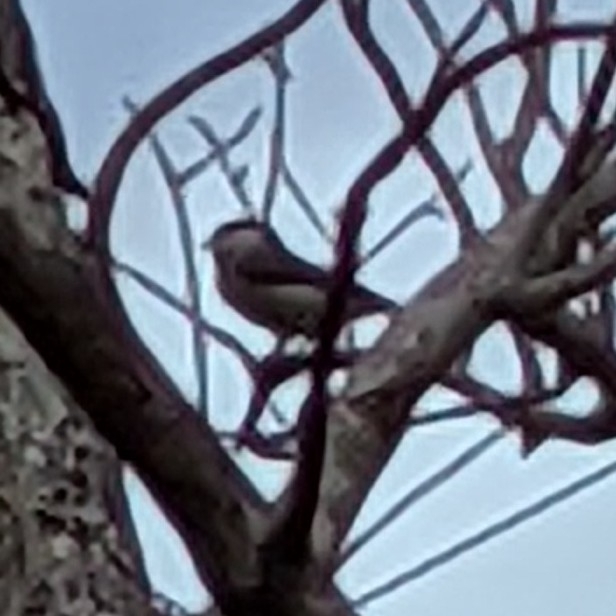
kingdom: Animalia
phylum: Chordata
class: Aves
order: Passeriformes
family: Paridae
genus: Poecile
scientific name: Poecile carolinensis
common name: Carolina chickadee
